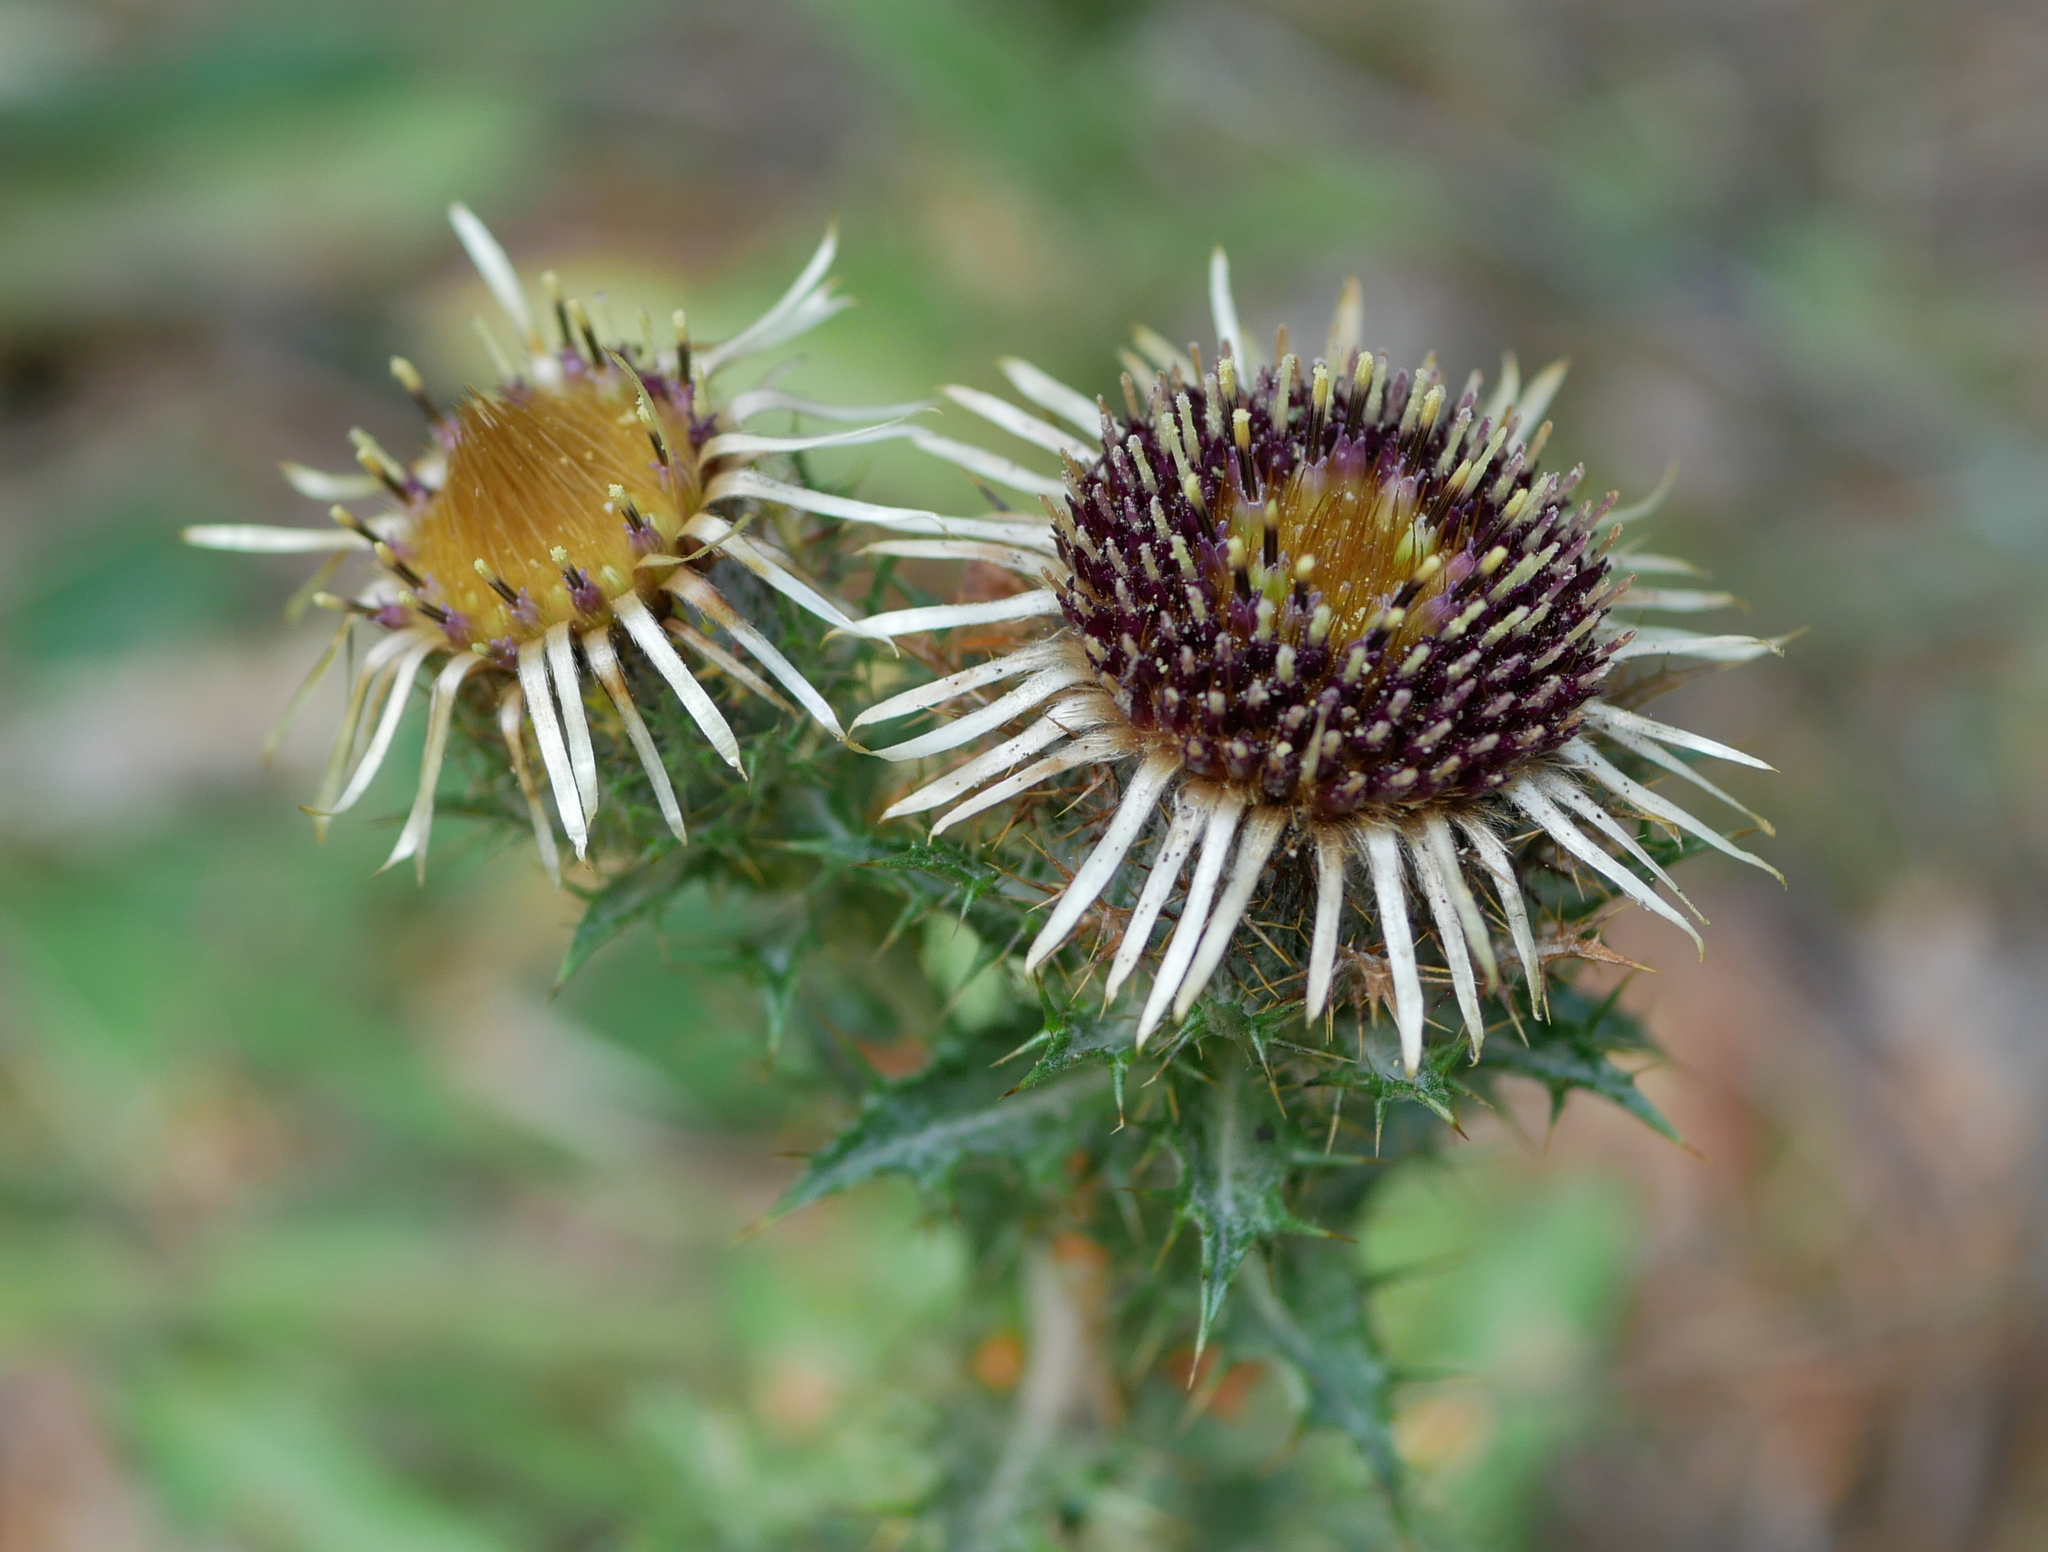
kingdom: Plantae
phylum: Tracheophyta
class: Magnoliopsida
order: Asterales
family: Asteraceae
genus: Carlina
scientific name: Carlina vulgaris
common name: Carline thistle
